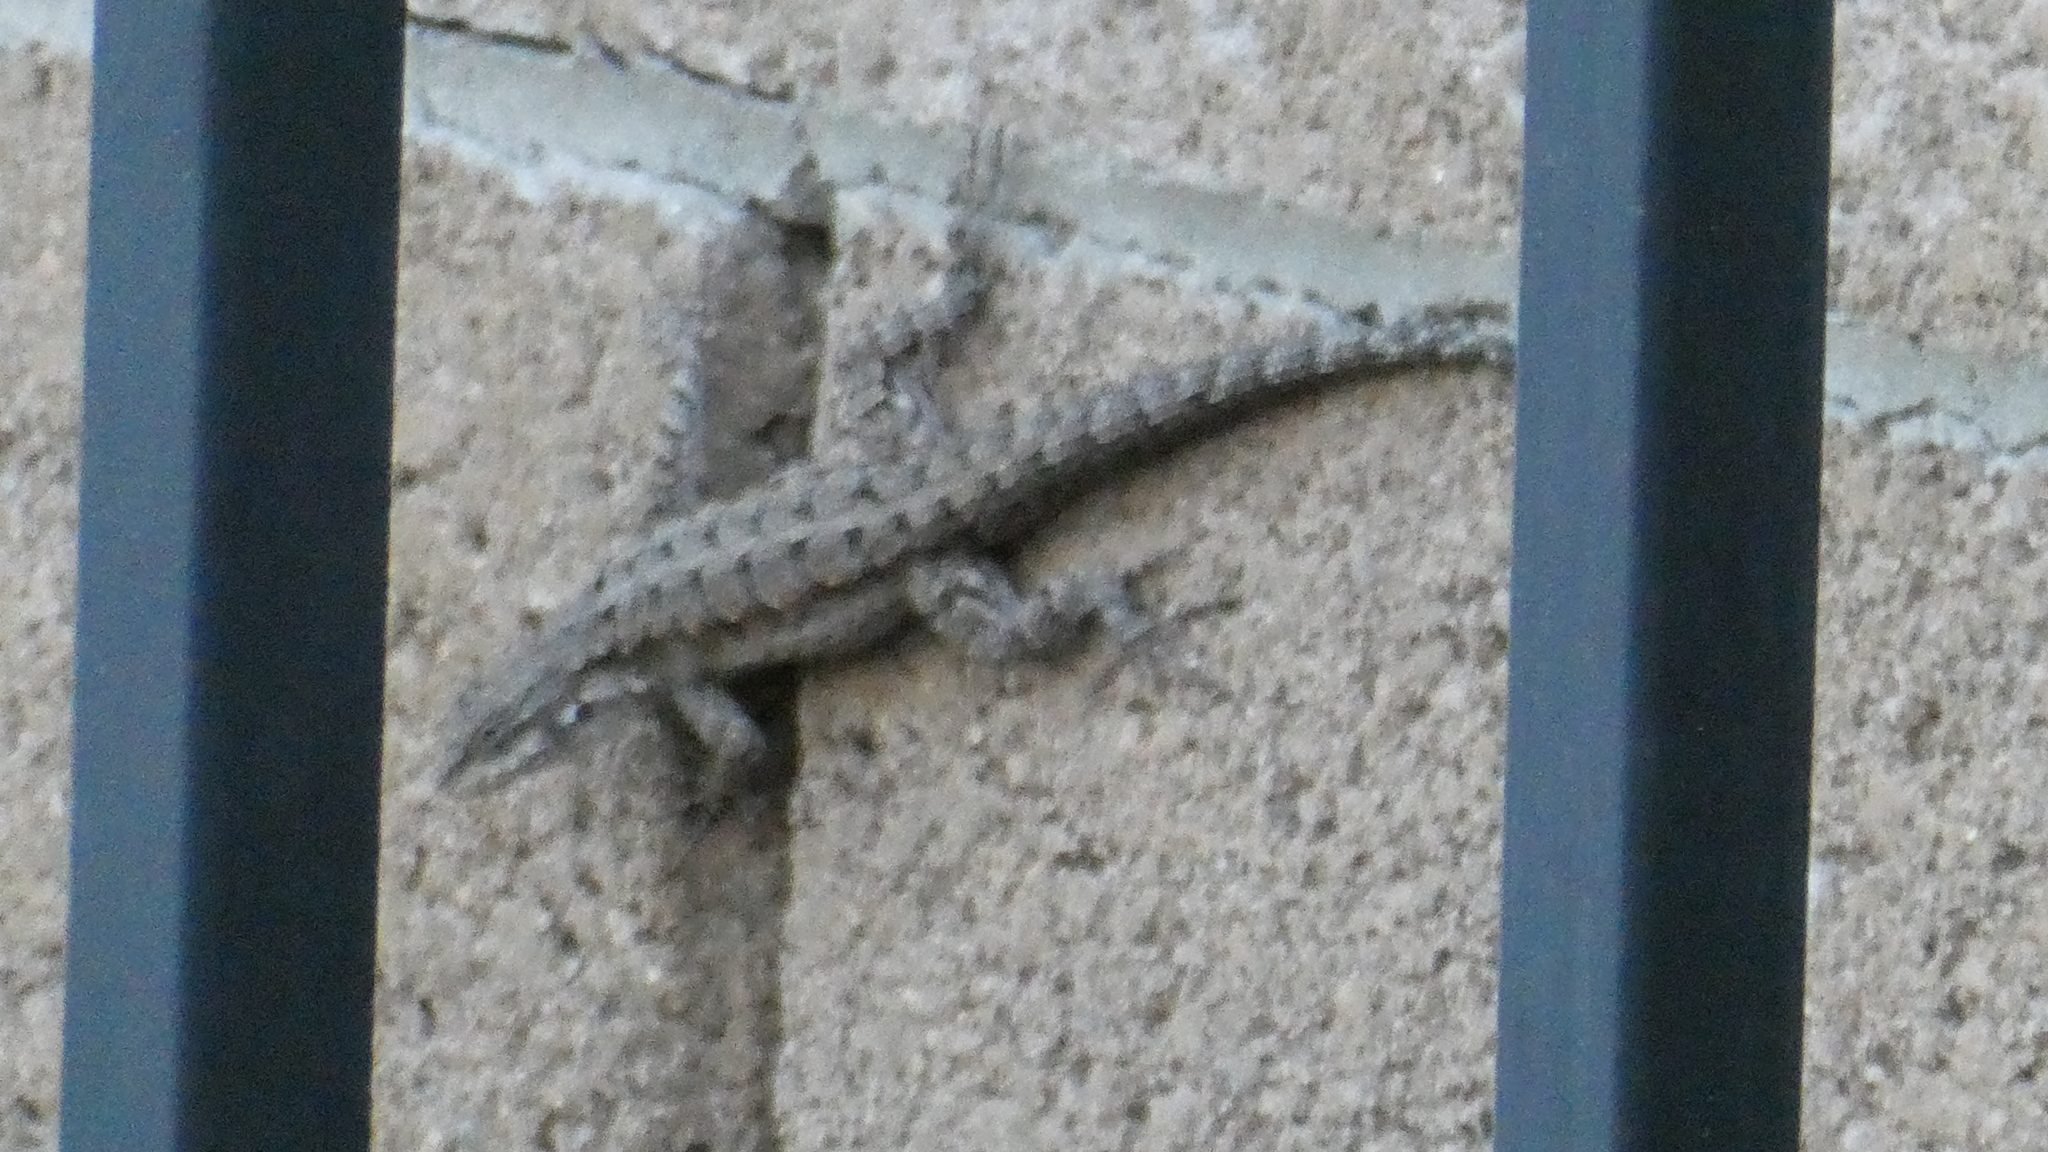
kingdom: Animalia
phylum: Chordata
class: Squamata
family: Phrynosomatidae
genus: Urosaurus
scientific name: Urosaurus ornatus
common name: Ornate tree lizard
